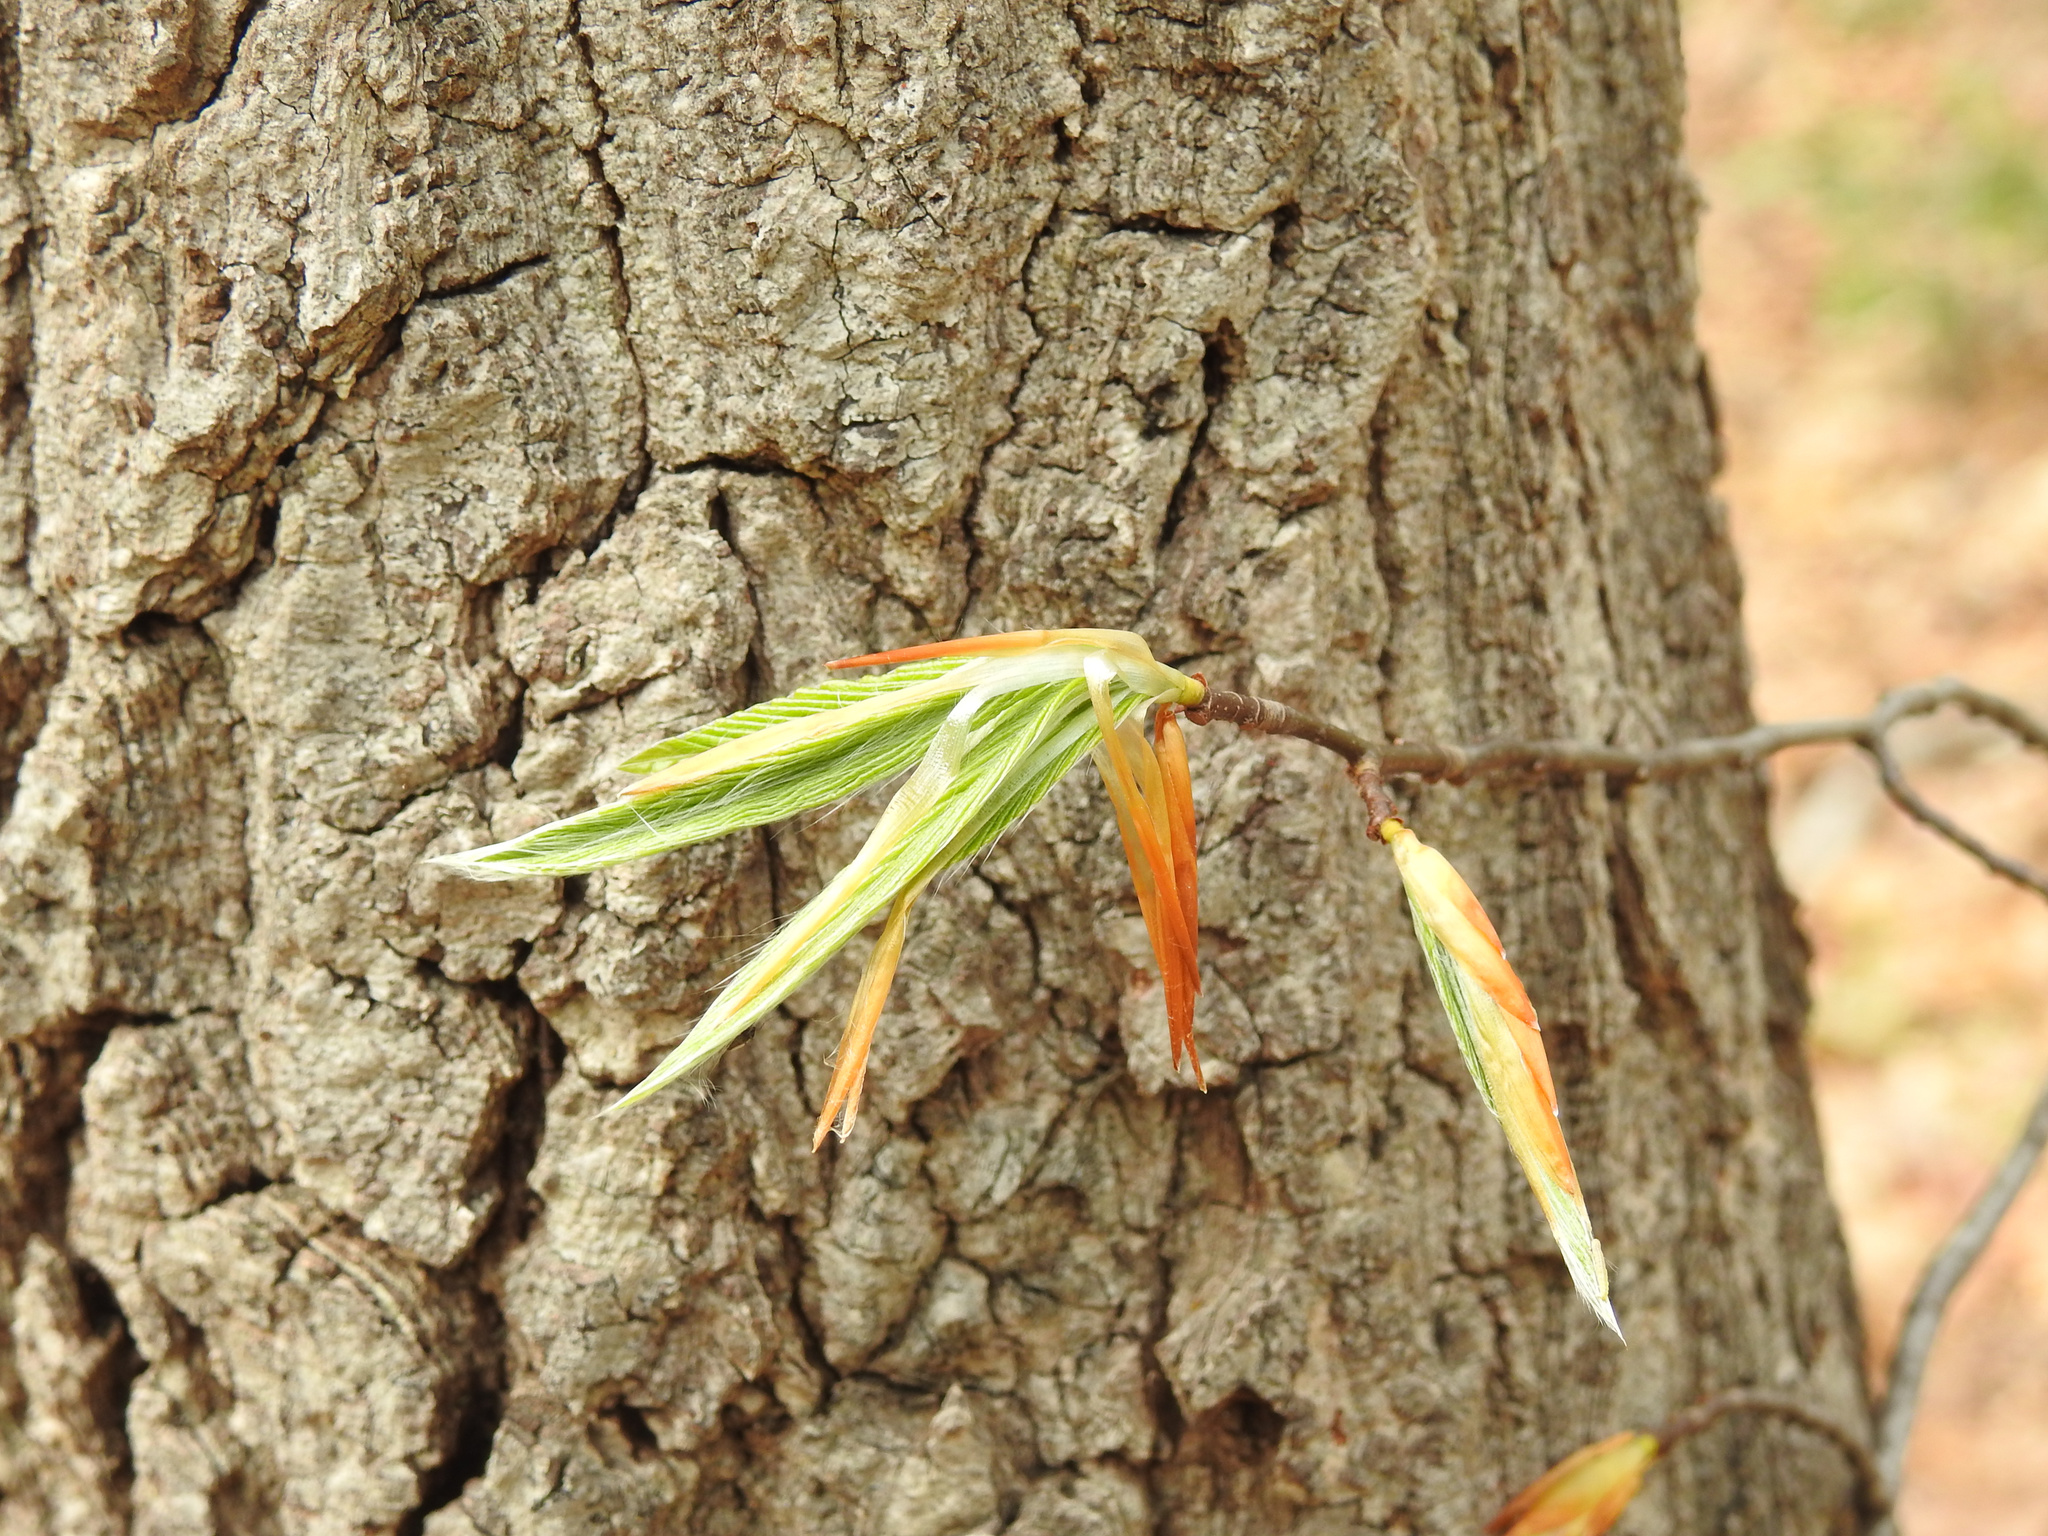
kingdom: Plantae
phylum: Tracheophyta
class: Magnoliopsida
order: Fagales
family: Fagaceae
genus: Fagus
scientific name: Fagus grandifolia
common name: American beech
